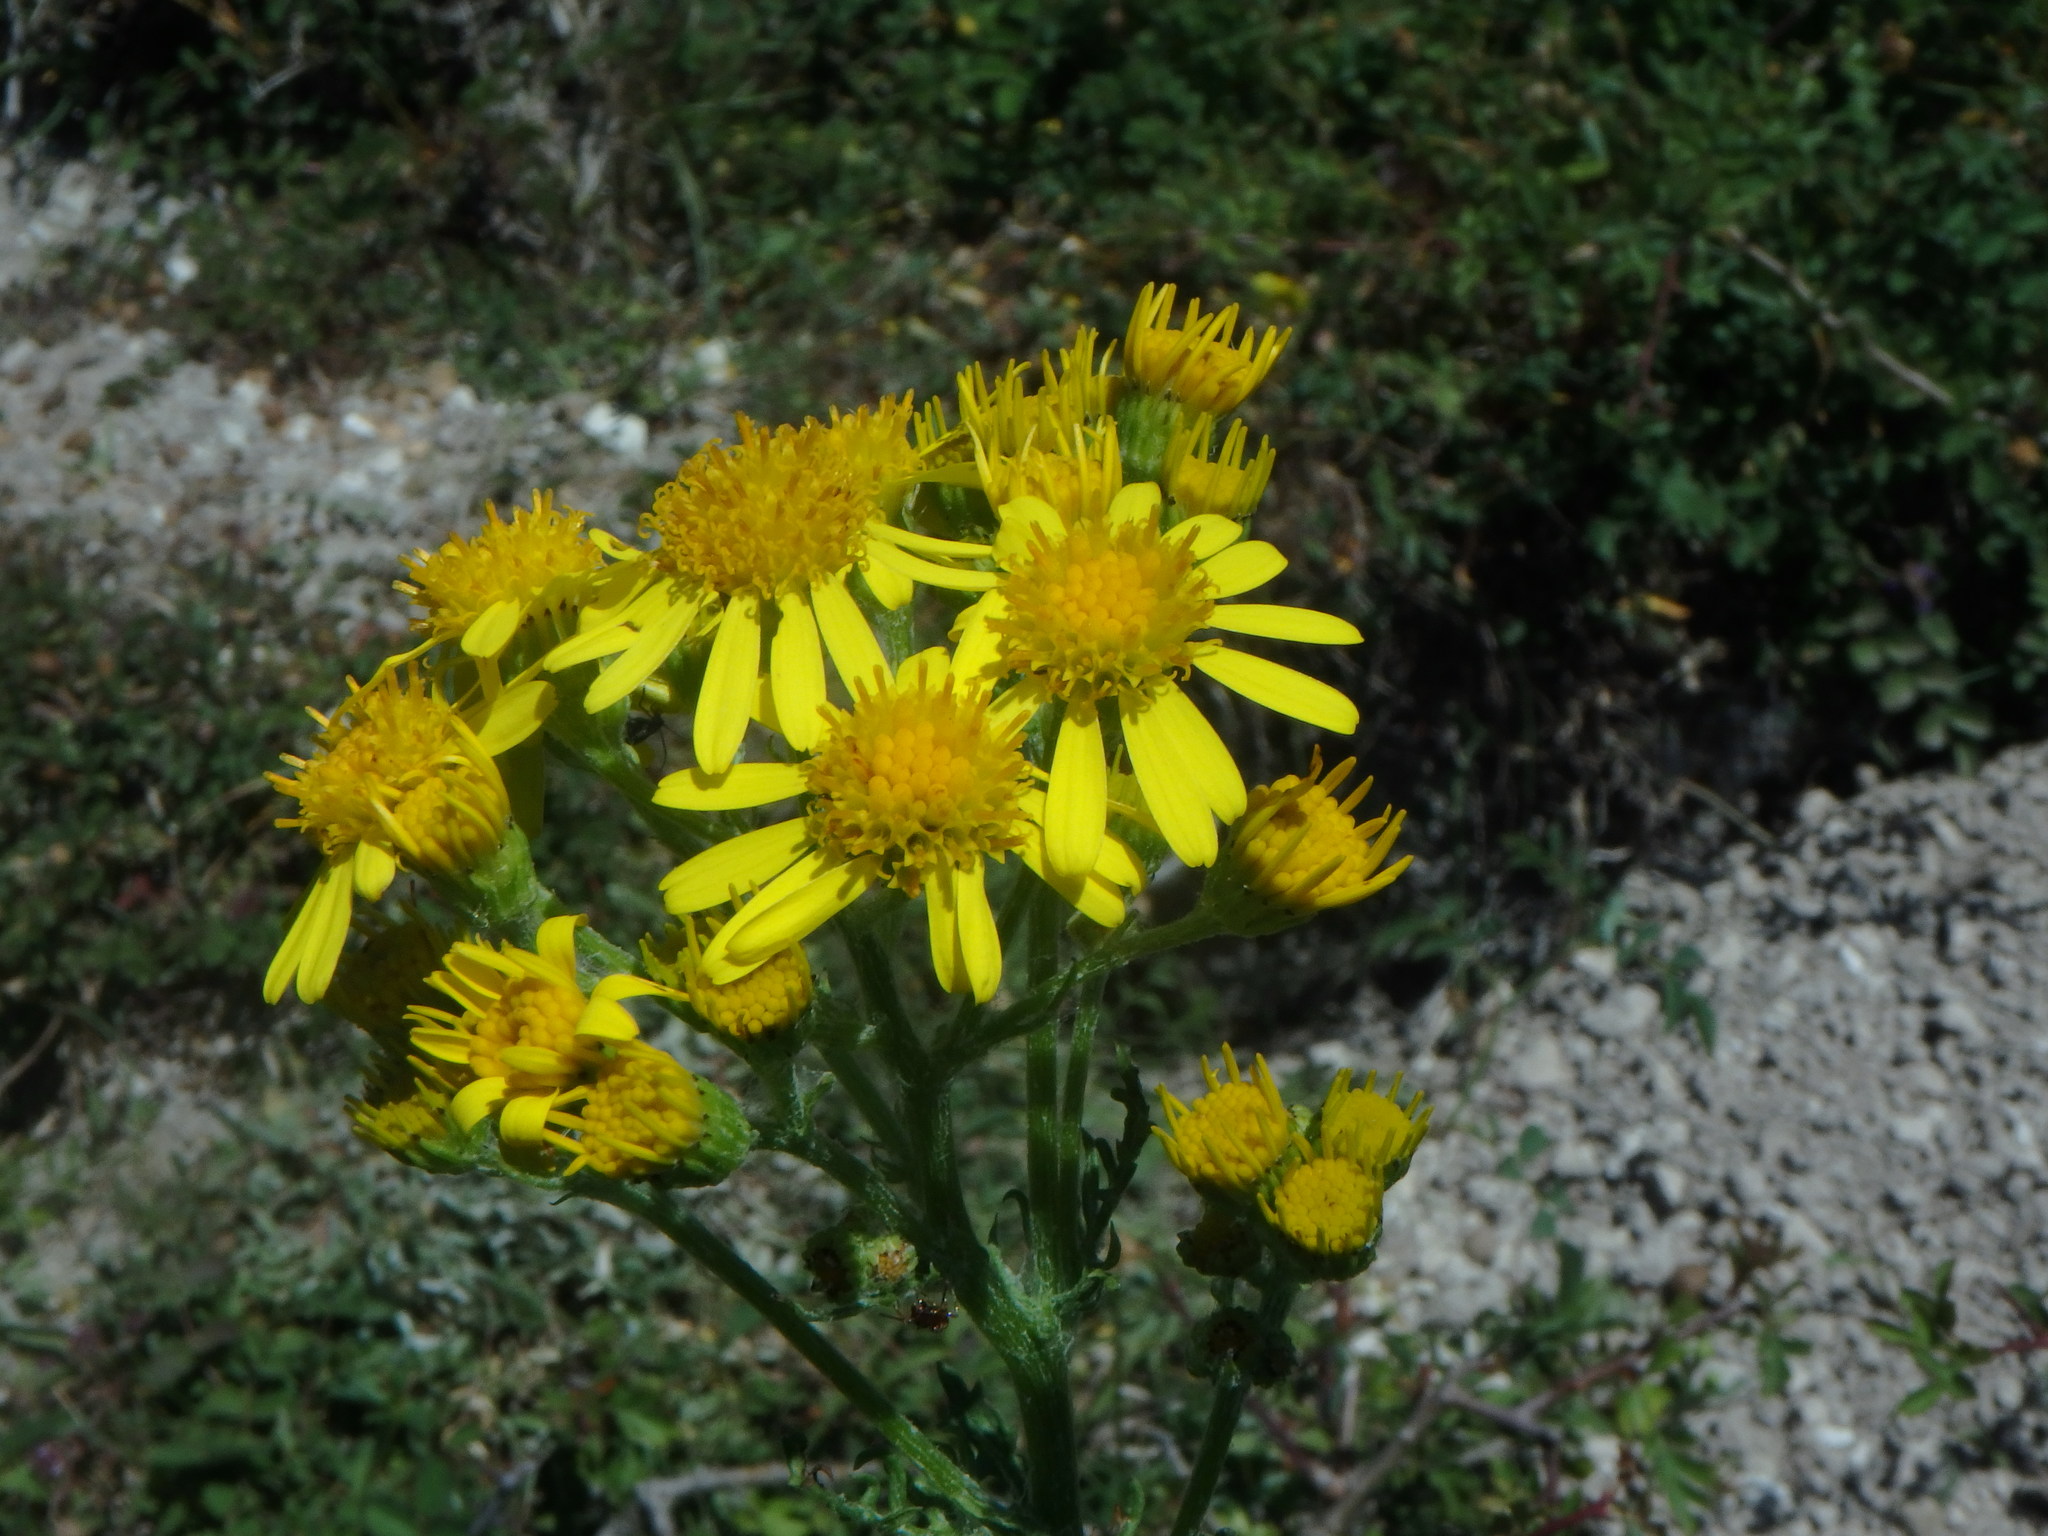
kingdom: Plantae
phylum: Tracheophyta
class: Magnoliopsida
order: Asterales
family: Asteraceae
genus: Jacobaea
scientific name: Jacobaea vulgaris
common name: Stinking willie
